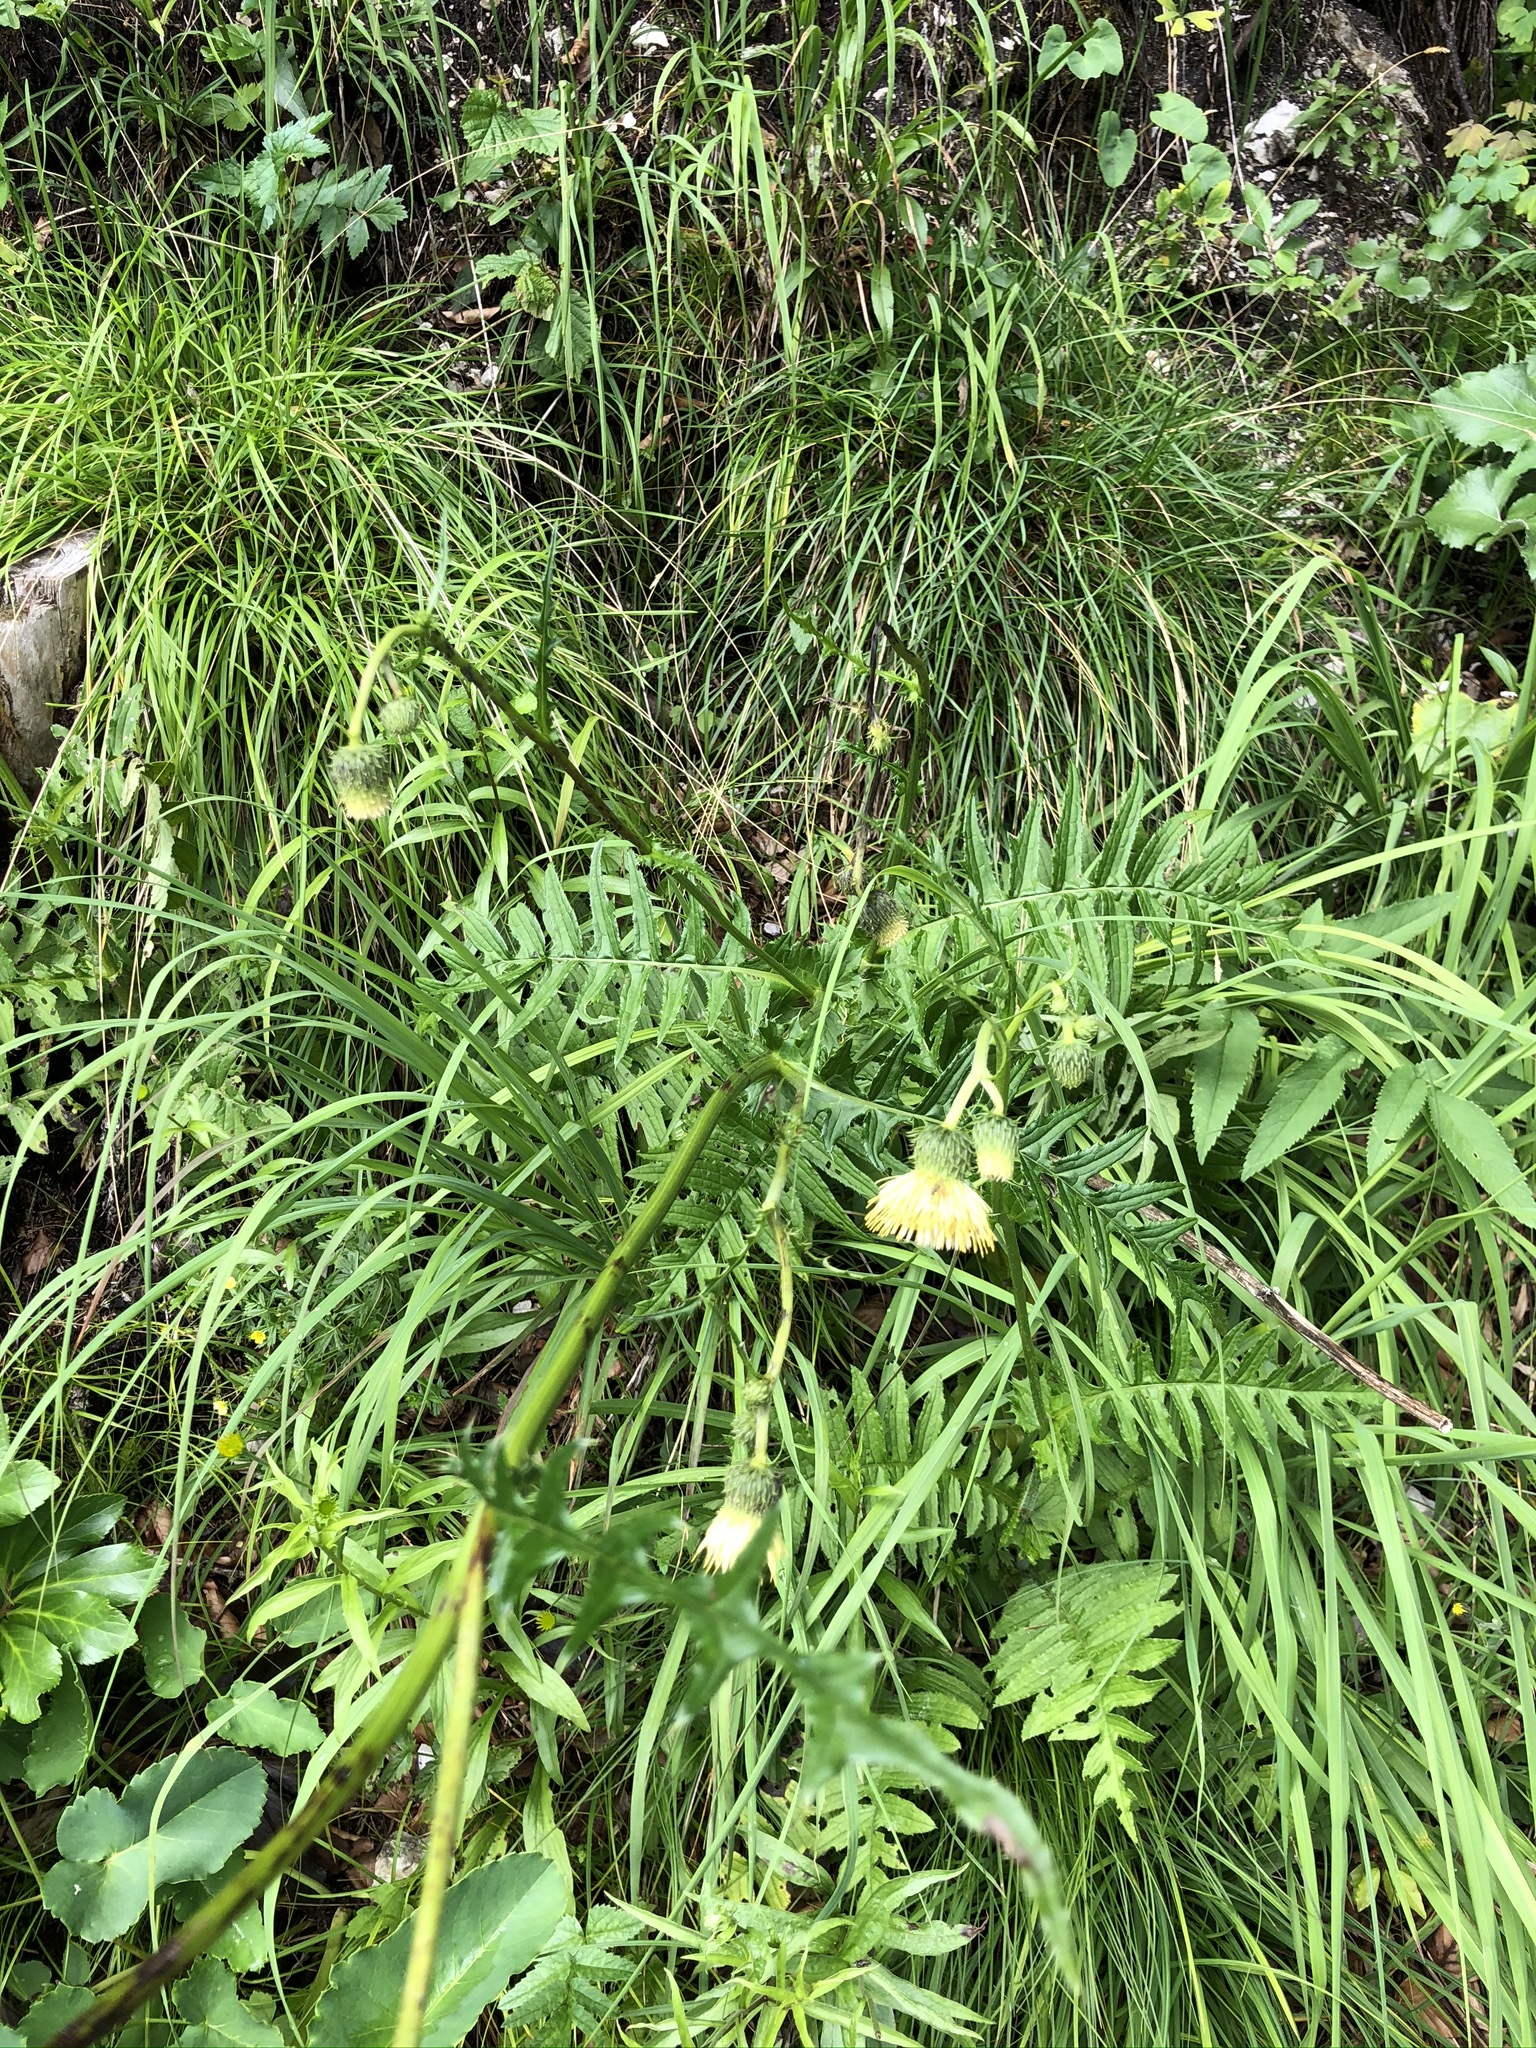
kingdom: Plantae
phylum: Tracheophyta
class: Magnoliopsida
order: Asterales
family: Asteraceae
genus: Cirsium
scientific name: Cirsium erisithales
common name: Yellow thistle
